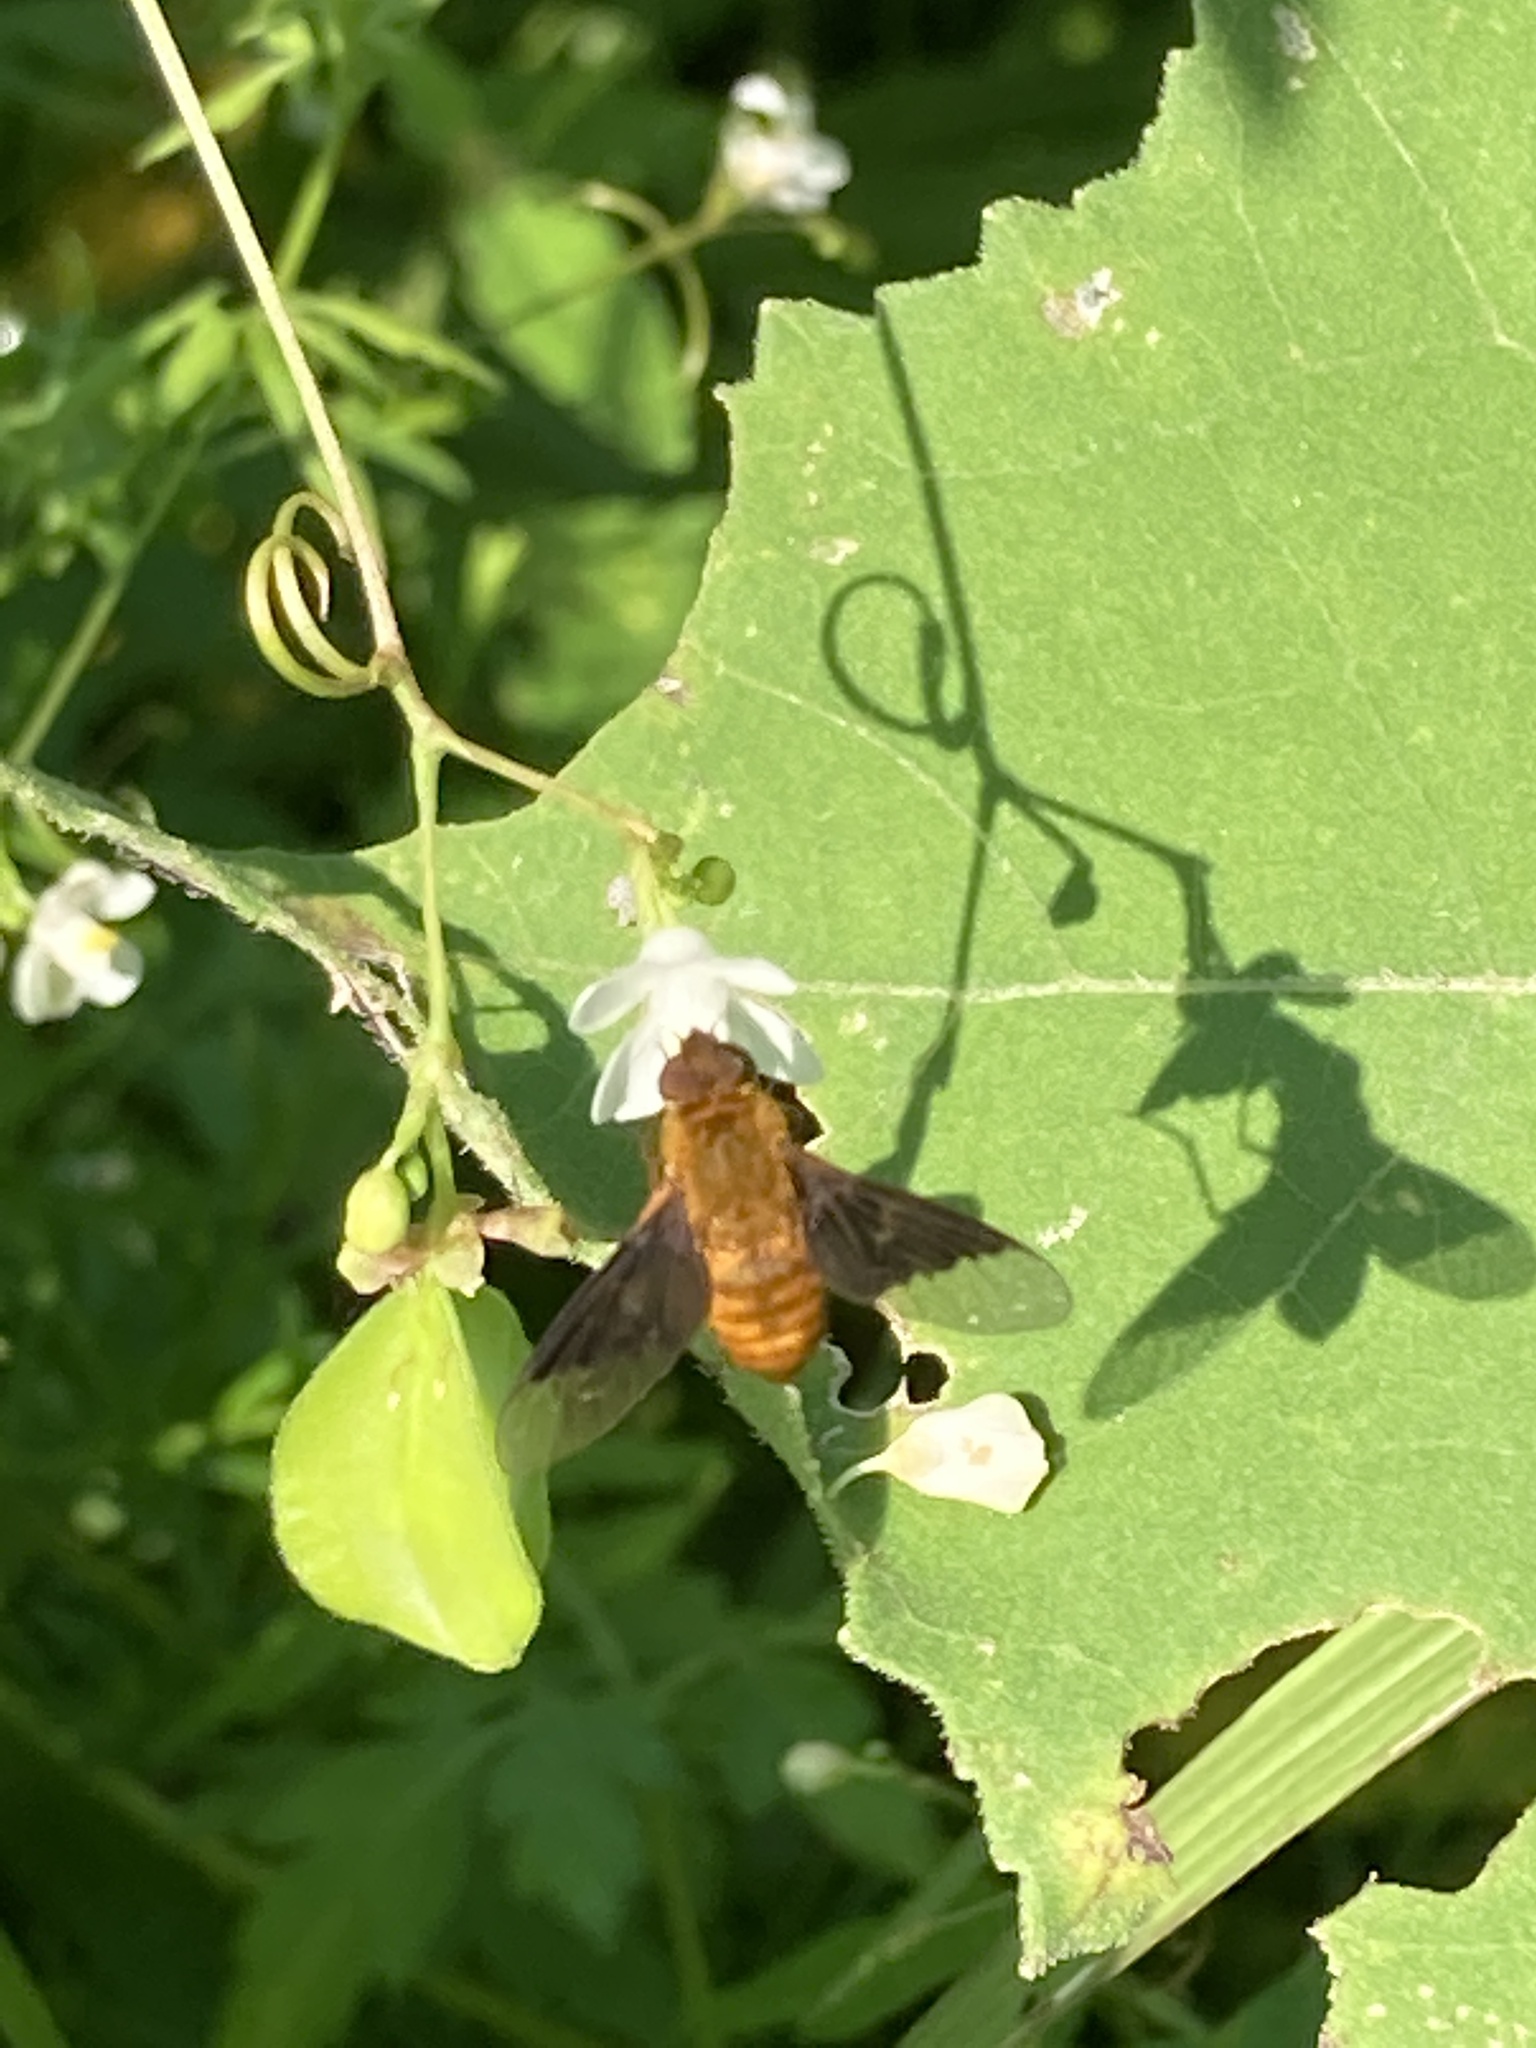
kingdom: Animalia
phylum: Arthropoda
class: Insecta
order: Diptera
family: Bombyliidae
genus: Chrysanthrax
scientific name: Chrysanthrax cypris
